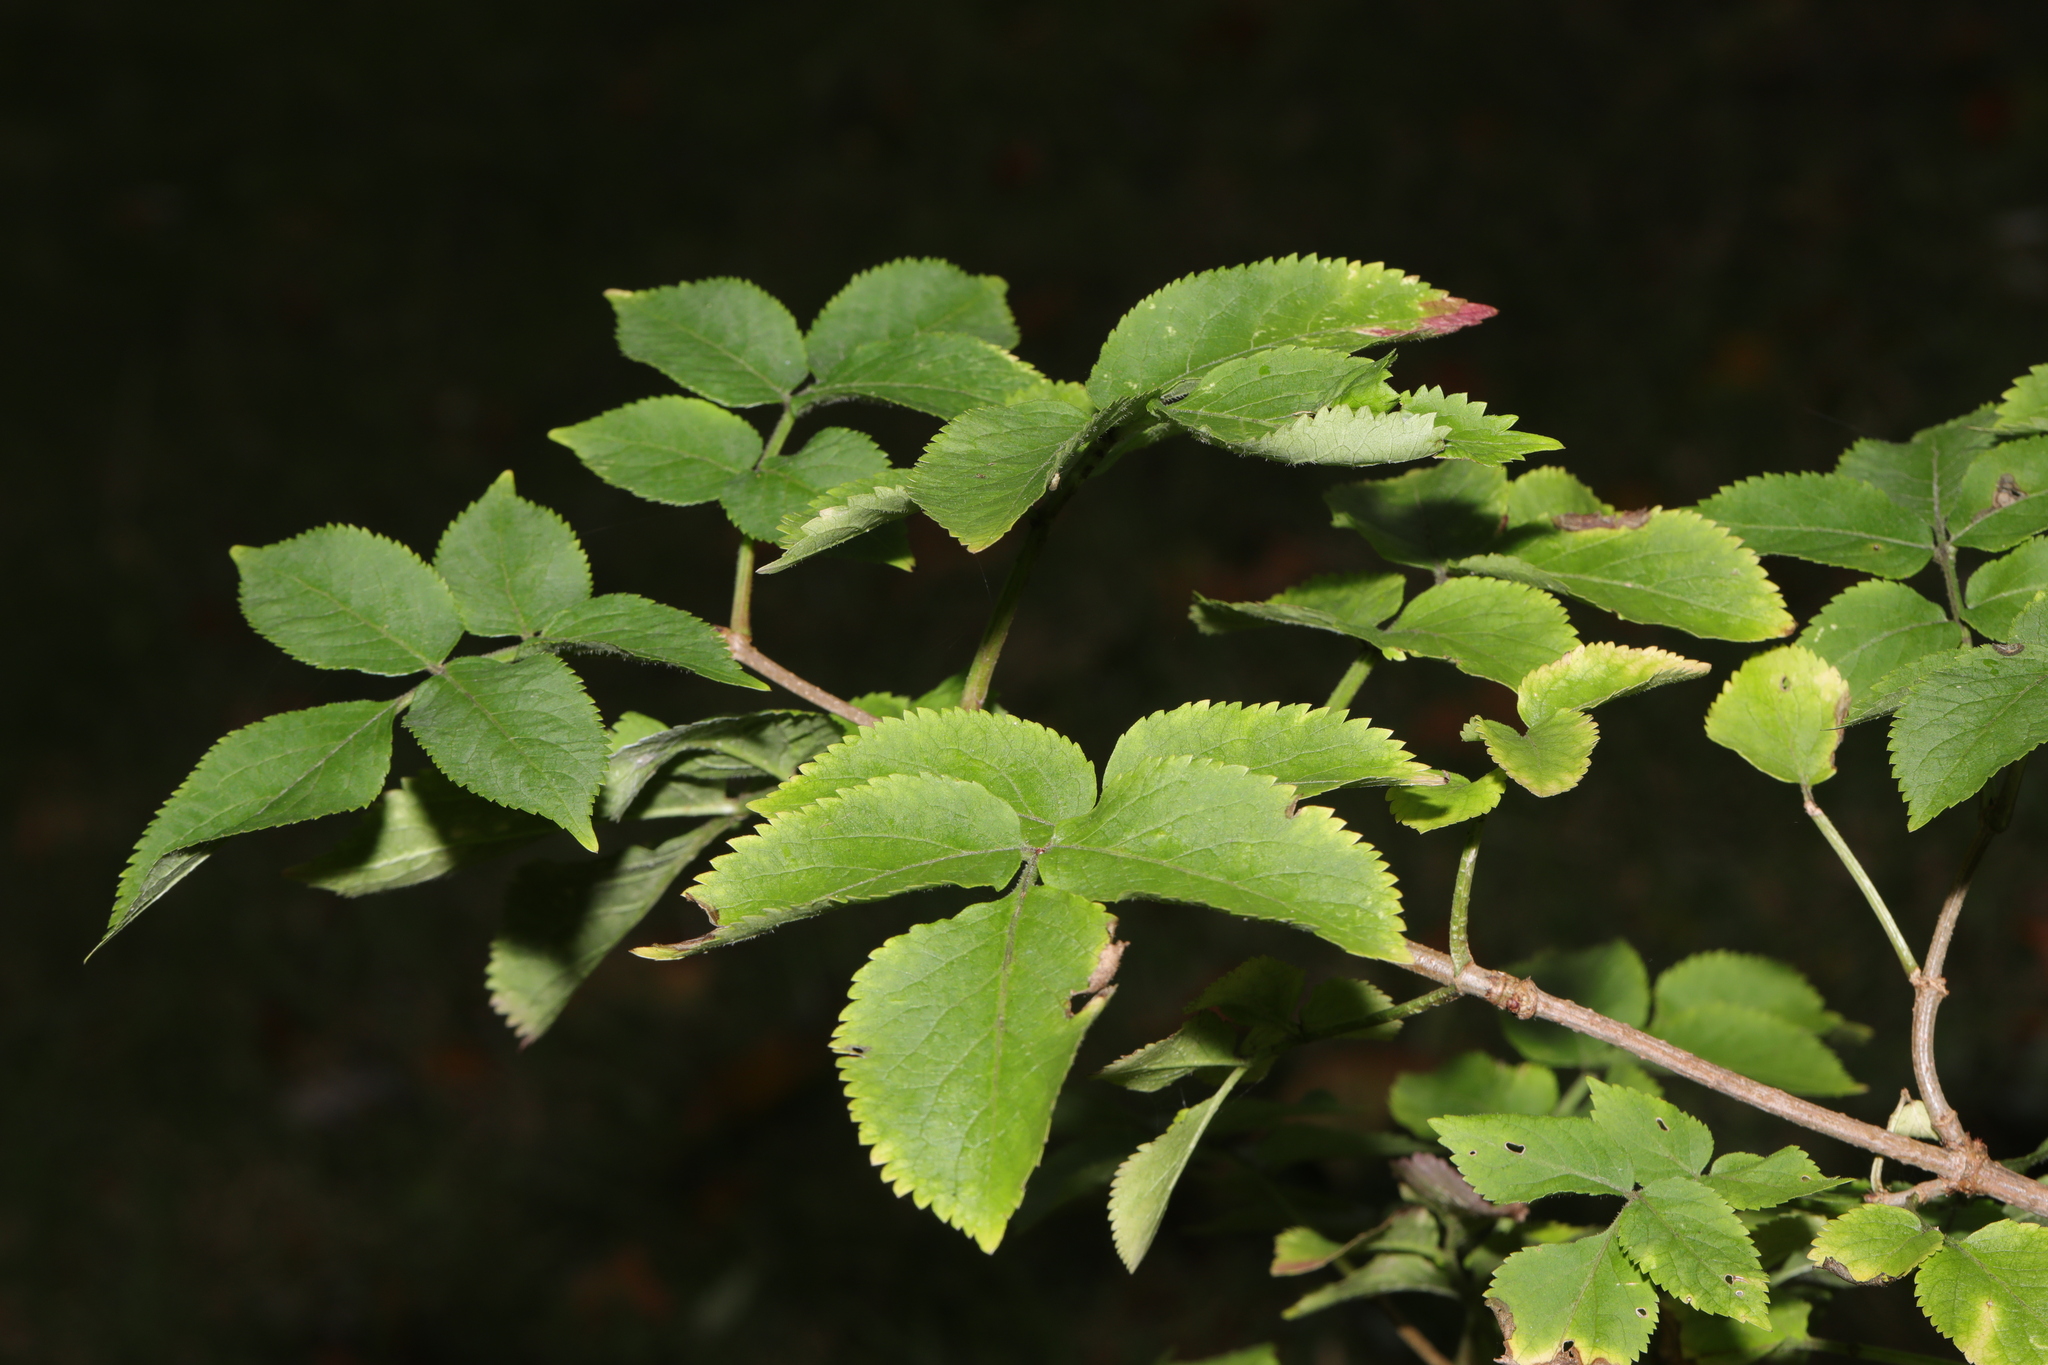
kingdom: Plantae
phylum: Tracheophyta
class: Magnoliopsida
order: Dipsacales
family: Viburnaceae
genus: Sambucus
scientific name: Sambucus nigra
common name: Elder
